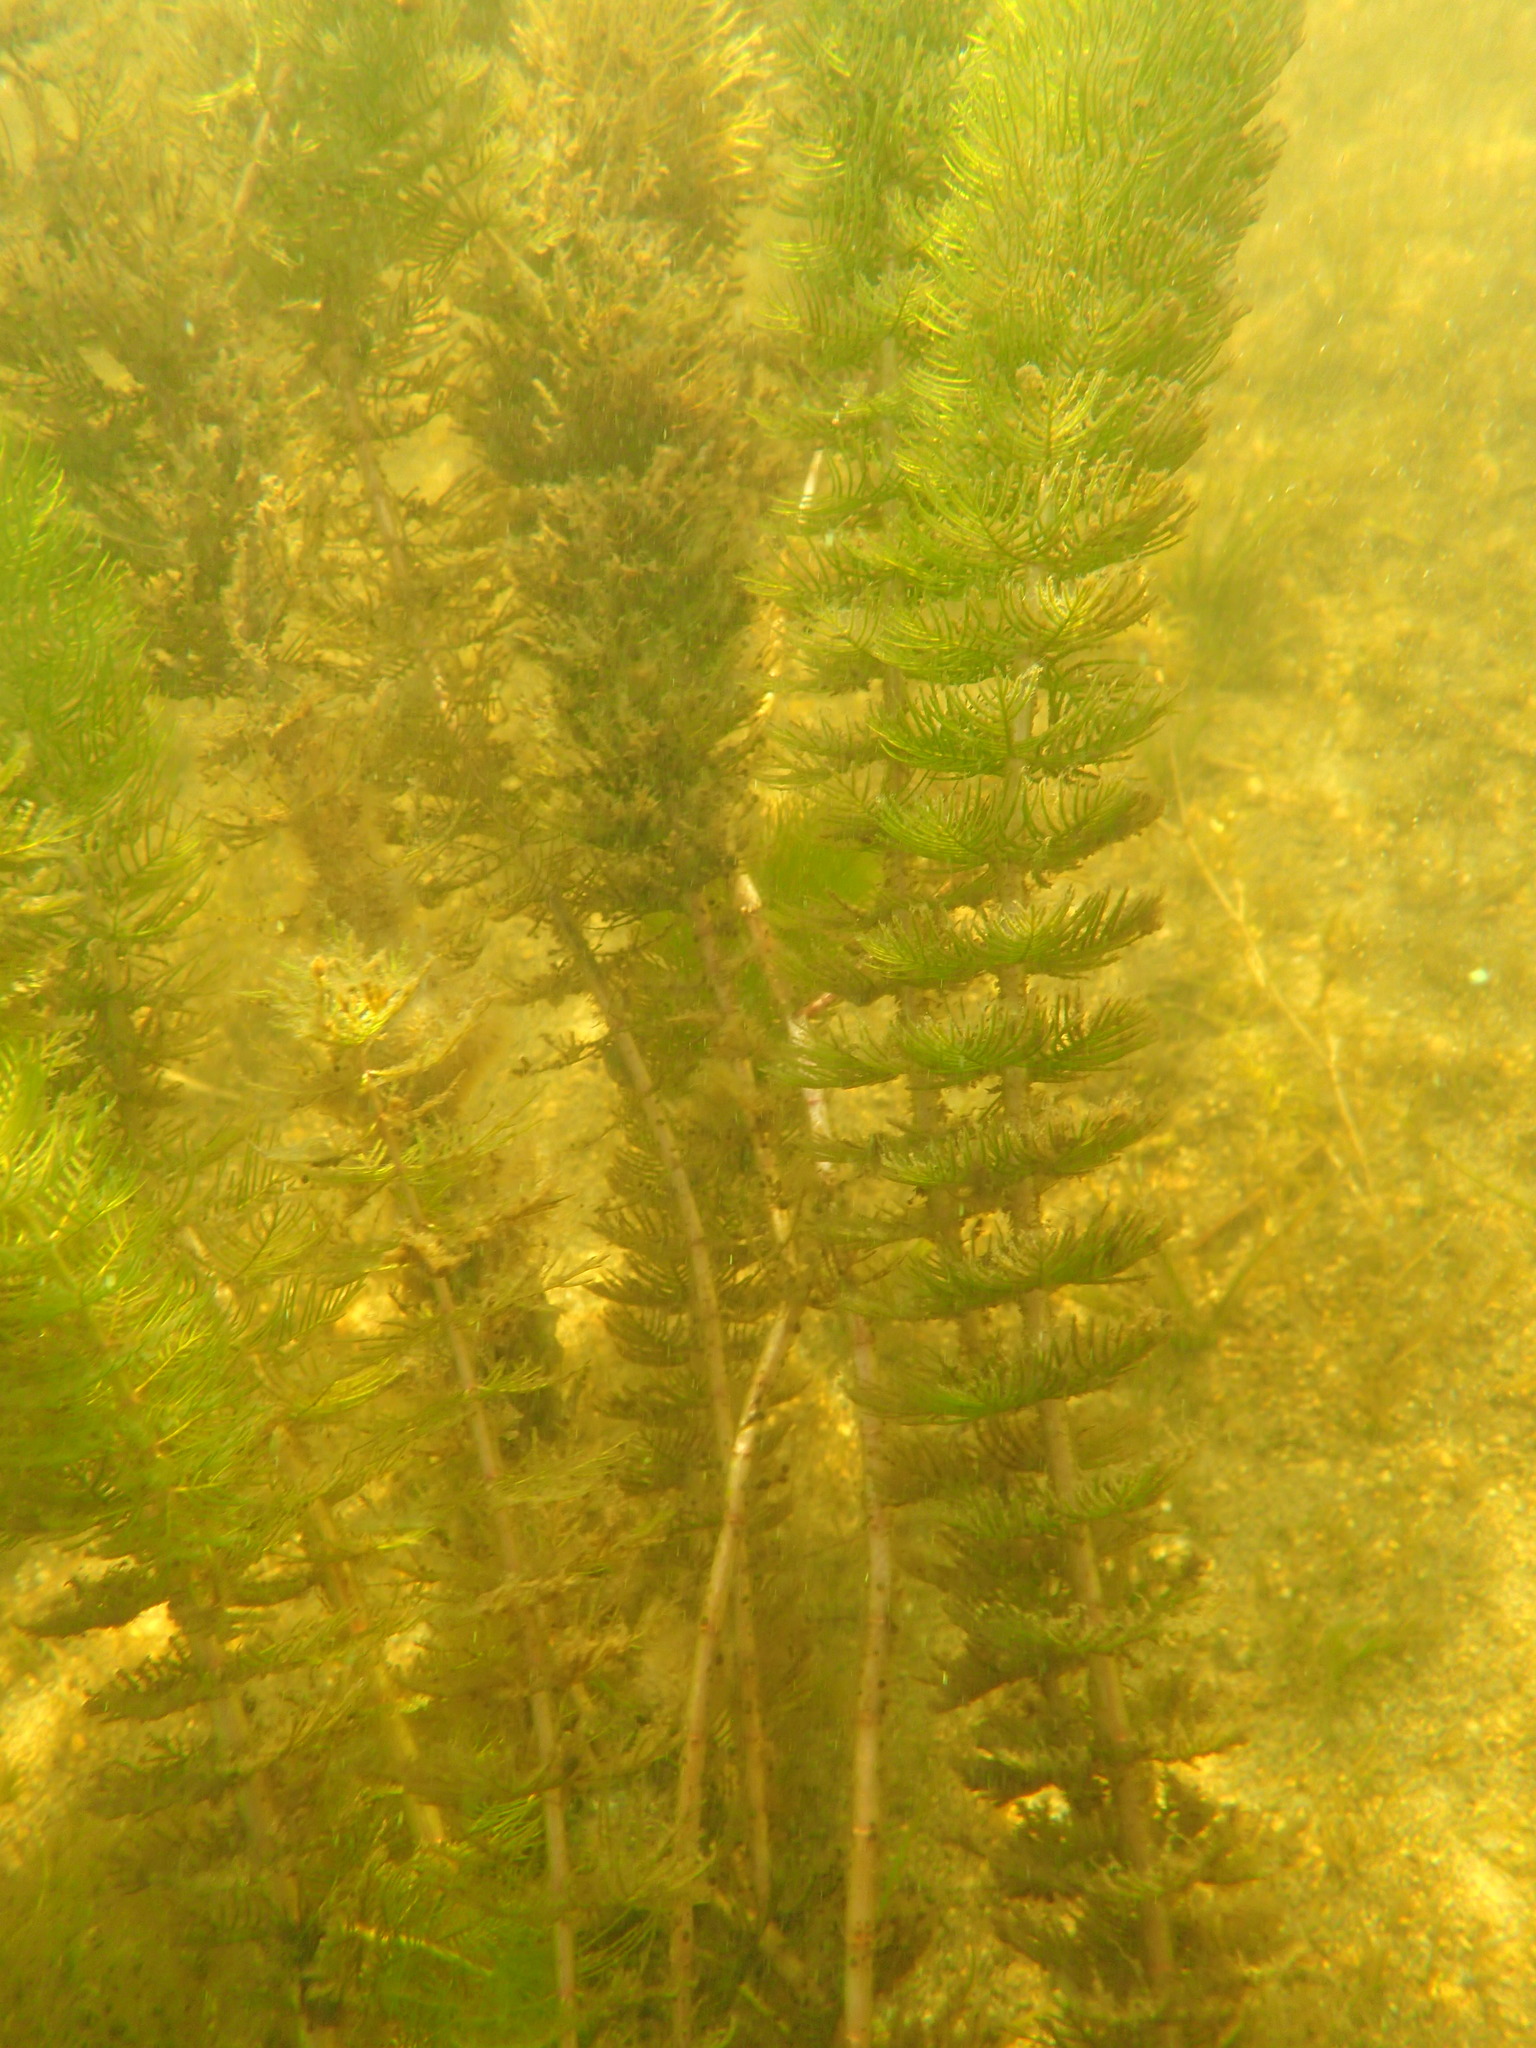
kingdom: Plantae
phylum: Tracheophyta
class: Magnoliopsida
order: Saxifragales
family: Haloragaceae
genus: Myriophyllum
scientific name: Myriophyllum sibiricum
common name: Siberian water-milfoil
